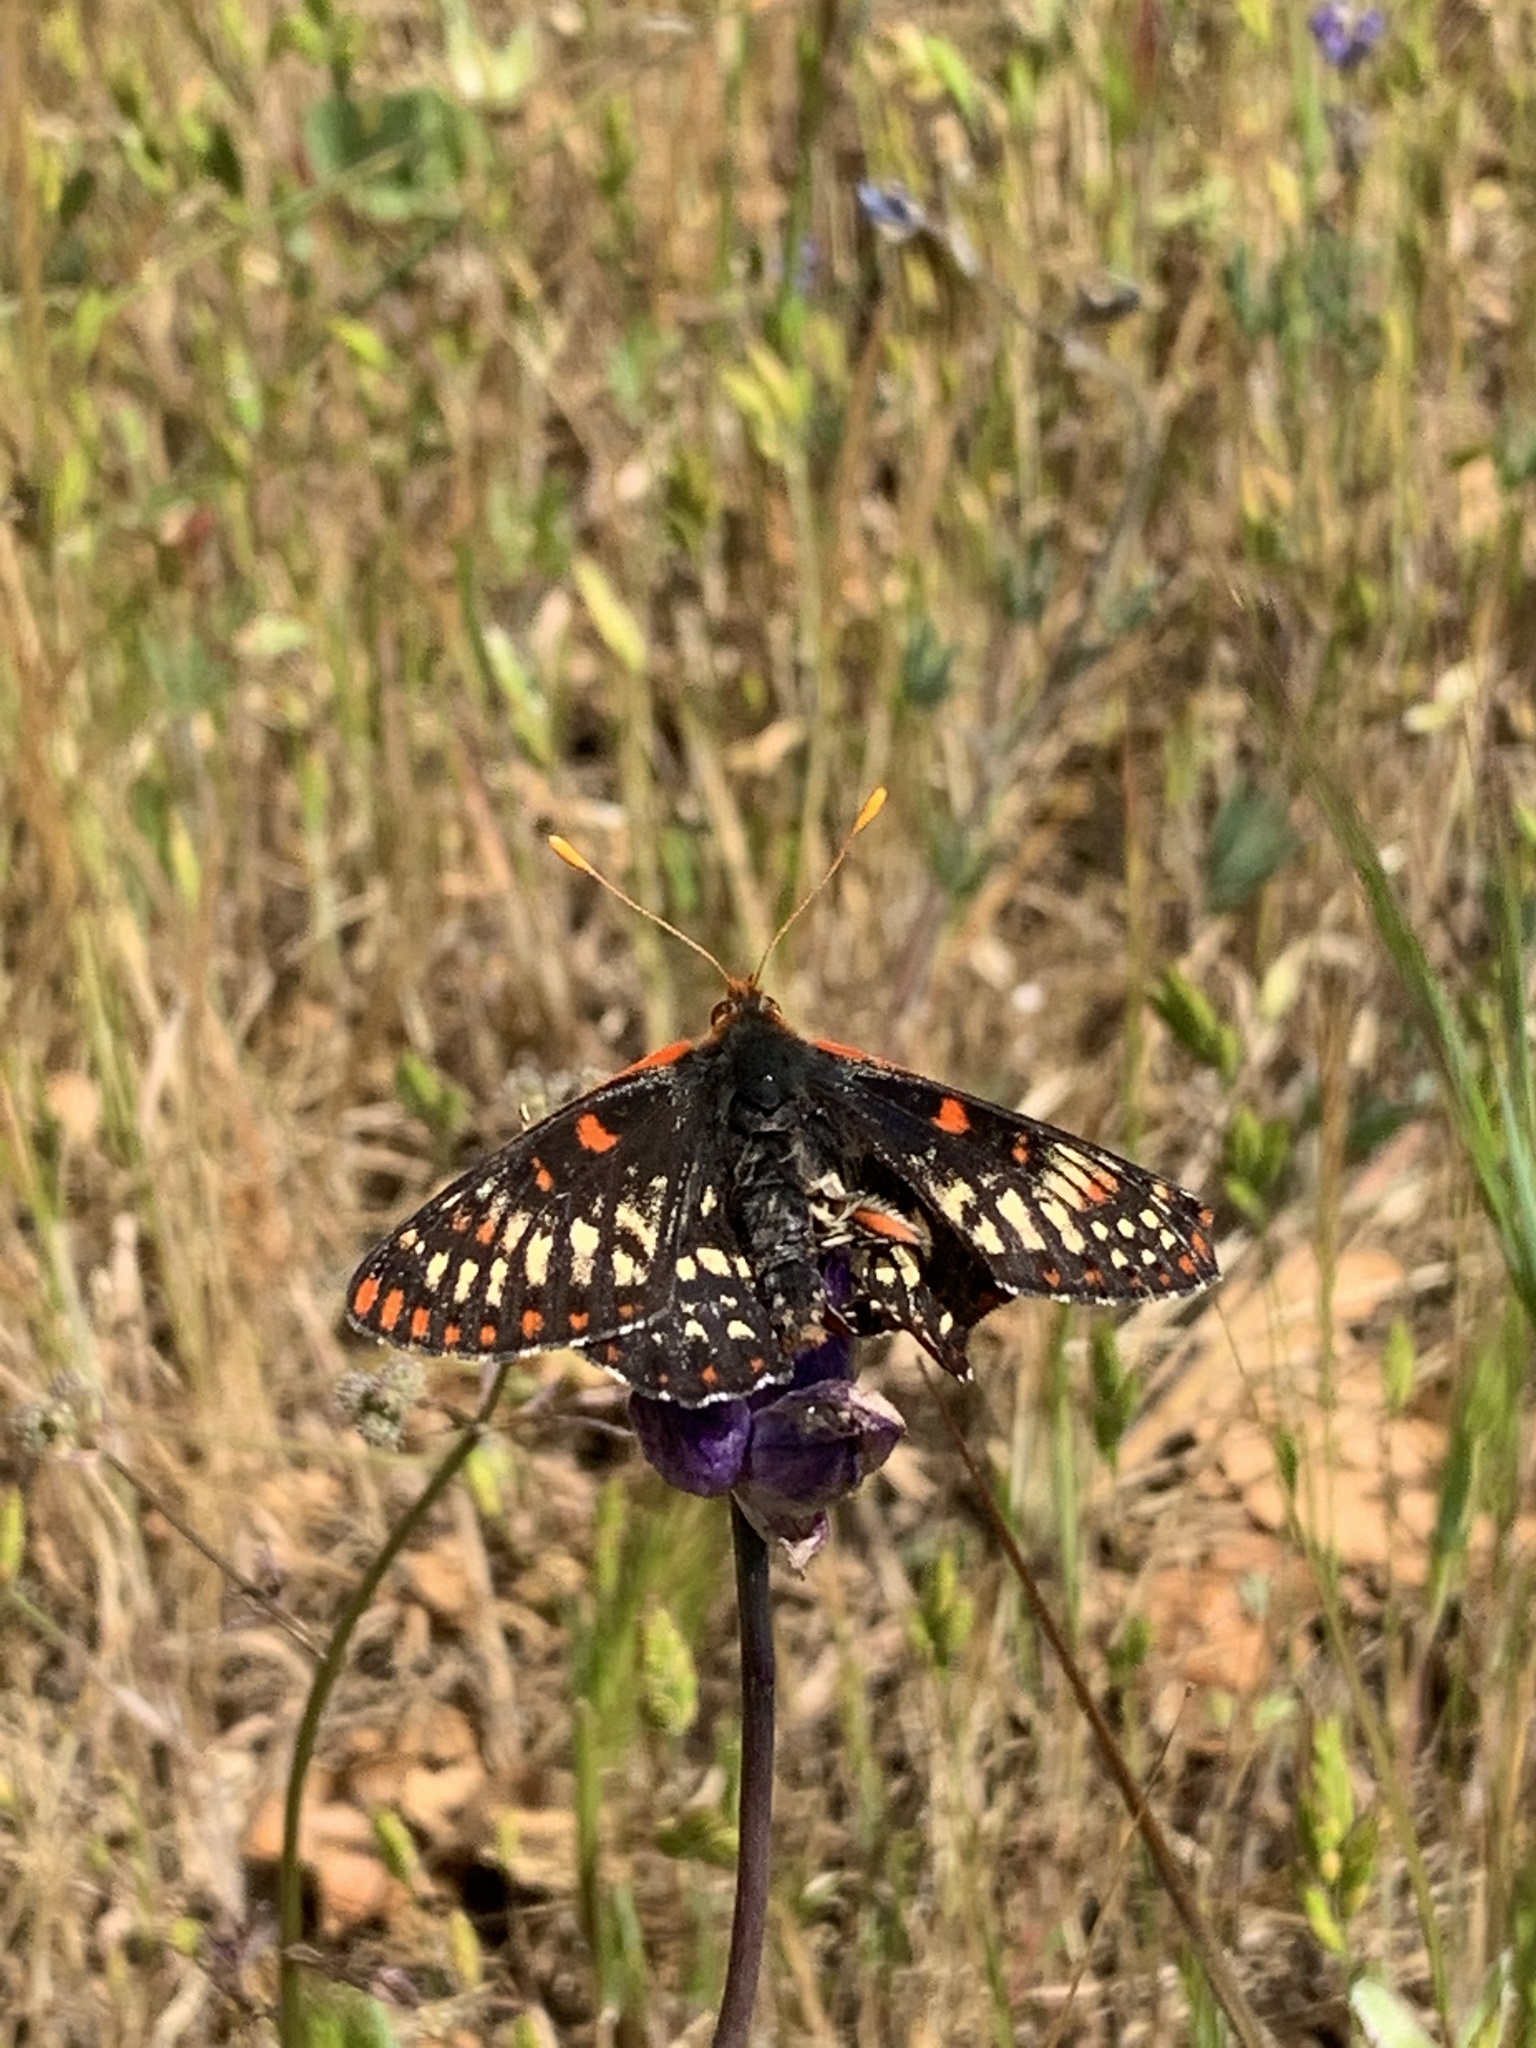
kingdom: Animalia
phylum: Arthropoda
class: Insecta
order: Lepidoptera
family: Nymphalidae
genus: Occidryas
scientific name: Occidryas chalcedona
